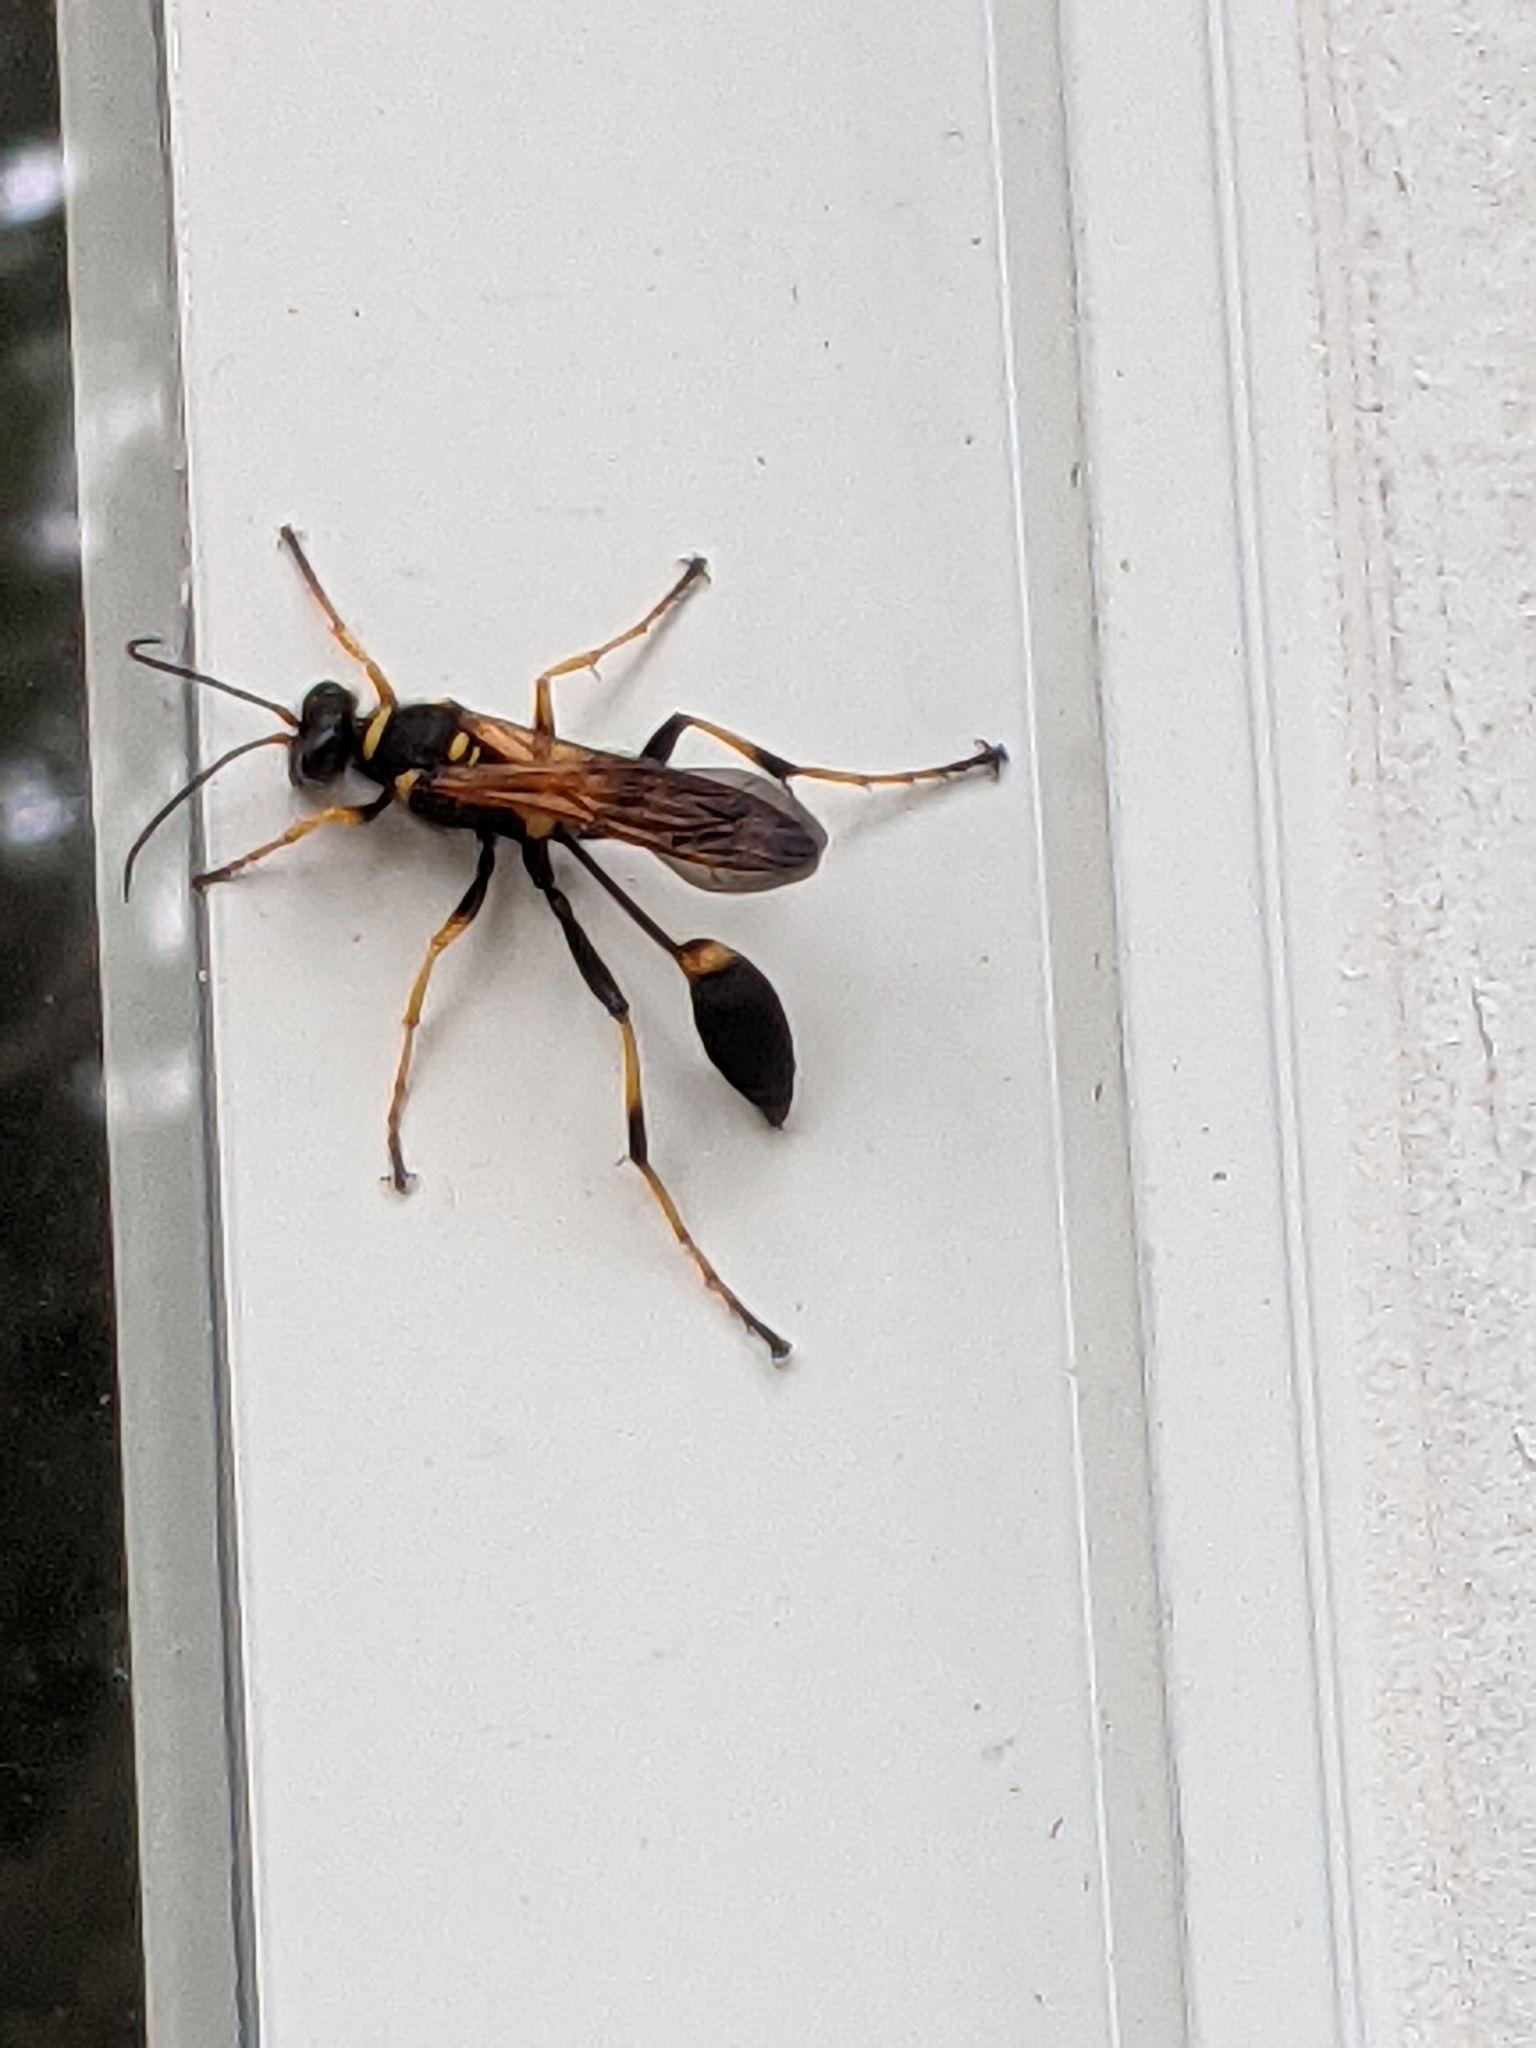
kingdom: Animalia
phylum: Arthropoda
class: Insecta
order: Hymenoptera
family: Sphecidae
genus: Sceliphron
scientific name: Sceliphron caementarium
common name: Mud dauber
